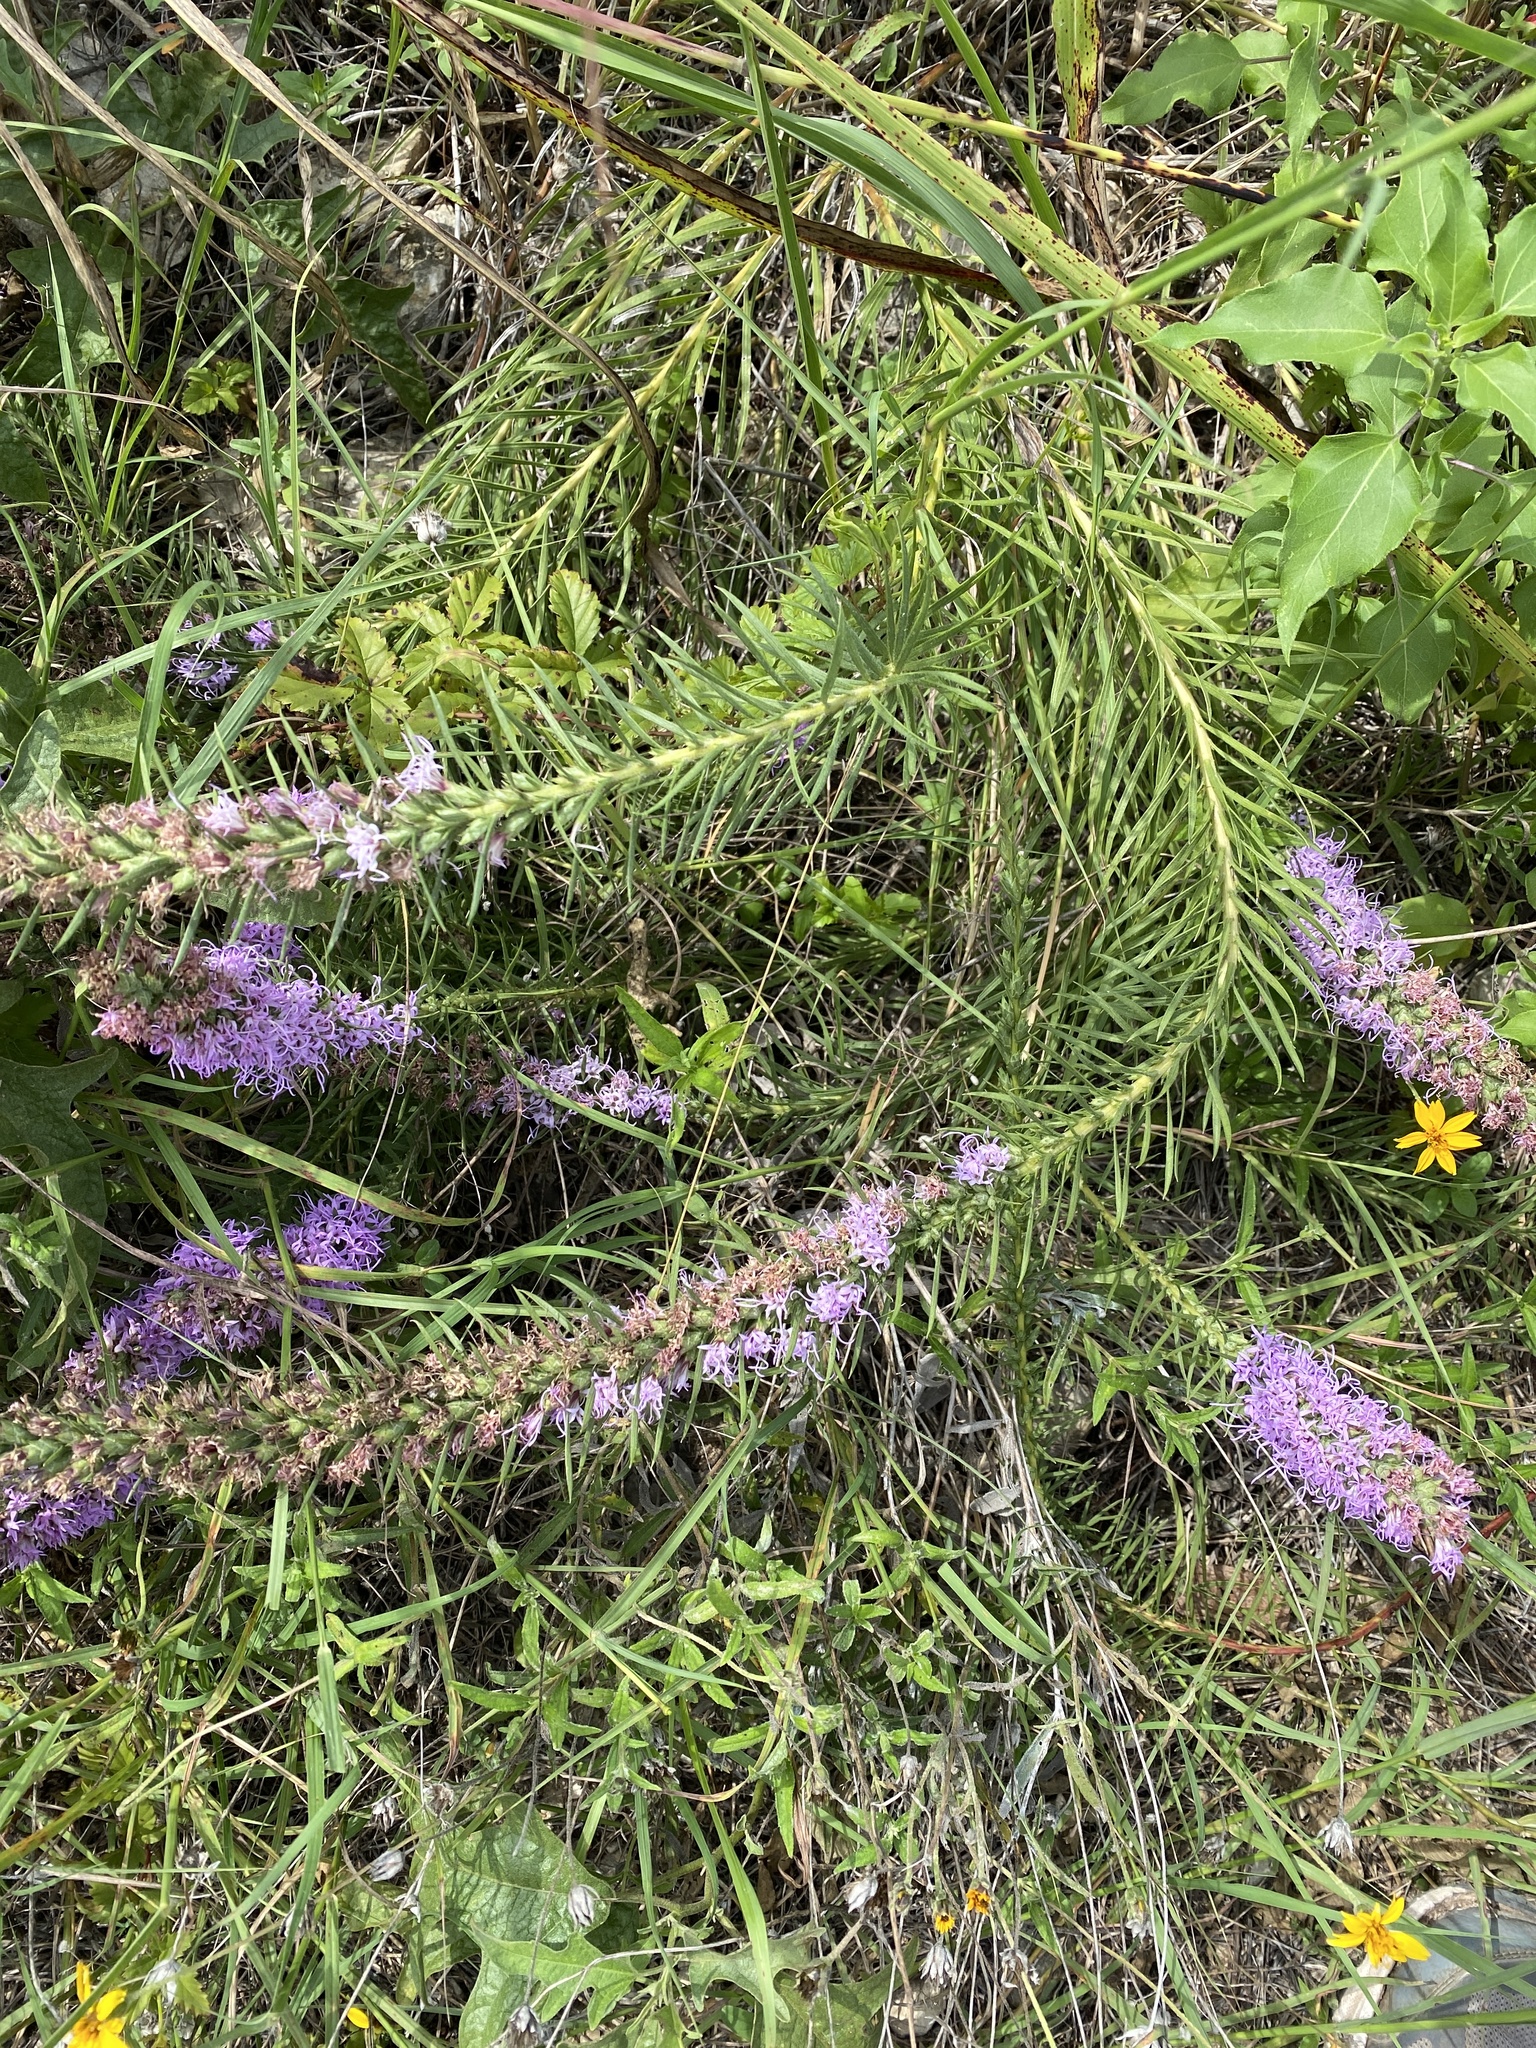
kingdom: Plantae
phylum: Tracheophyta
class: Magnoliopsida
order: Asterales
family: Asteraceae
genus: Liatris
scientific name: Liatris punctata
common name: Dotted gayfeather
